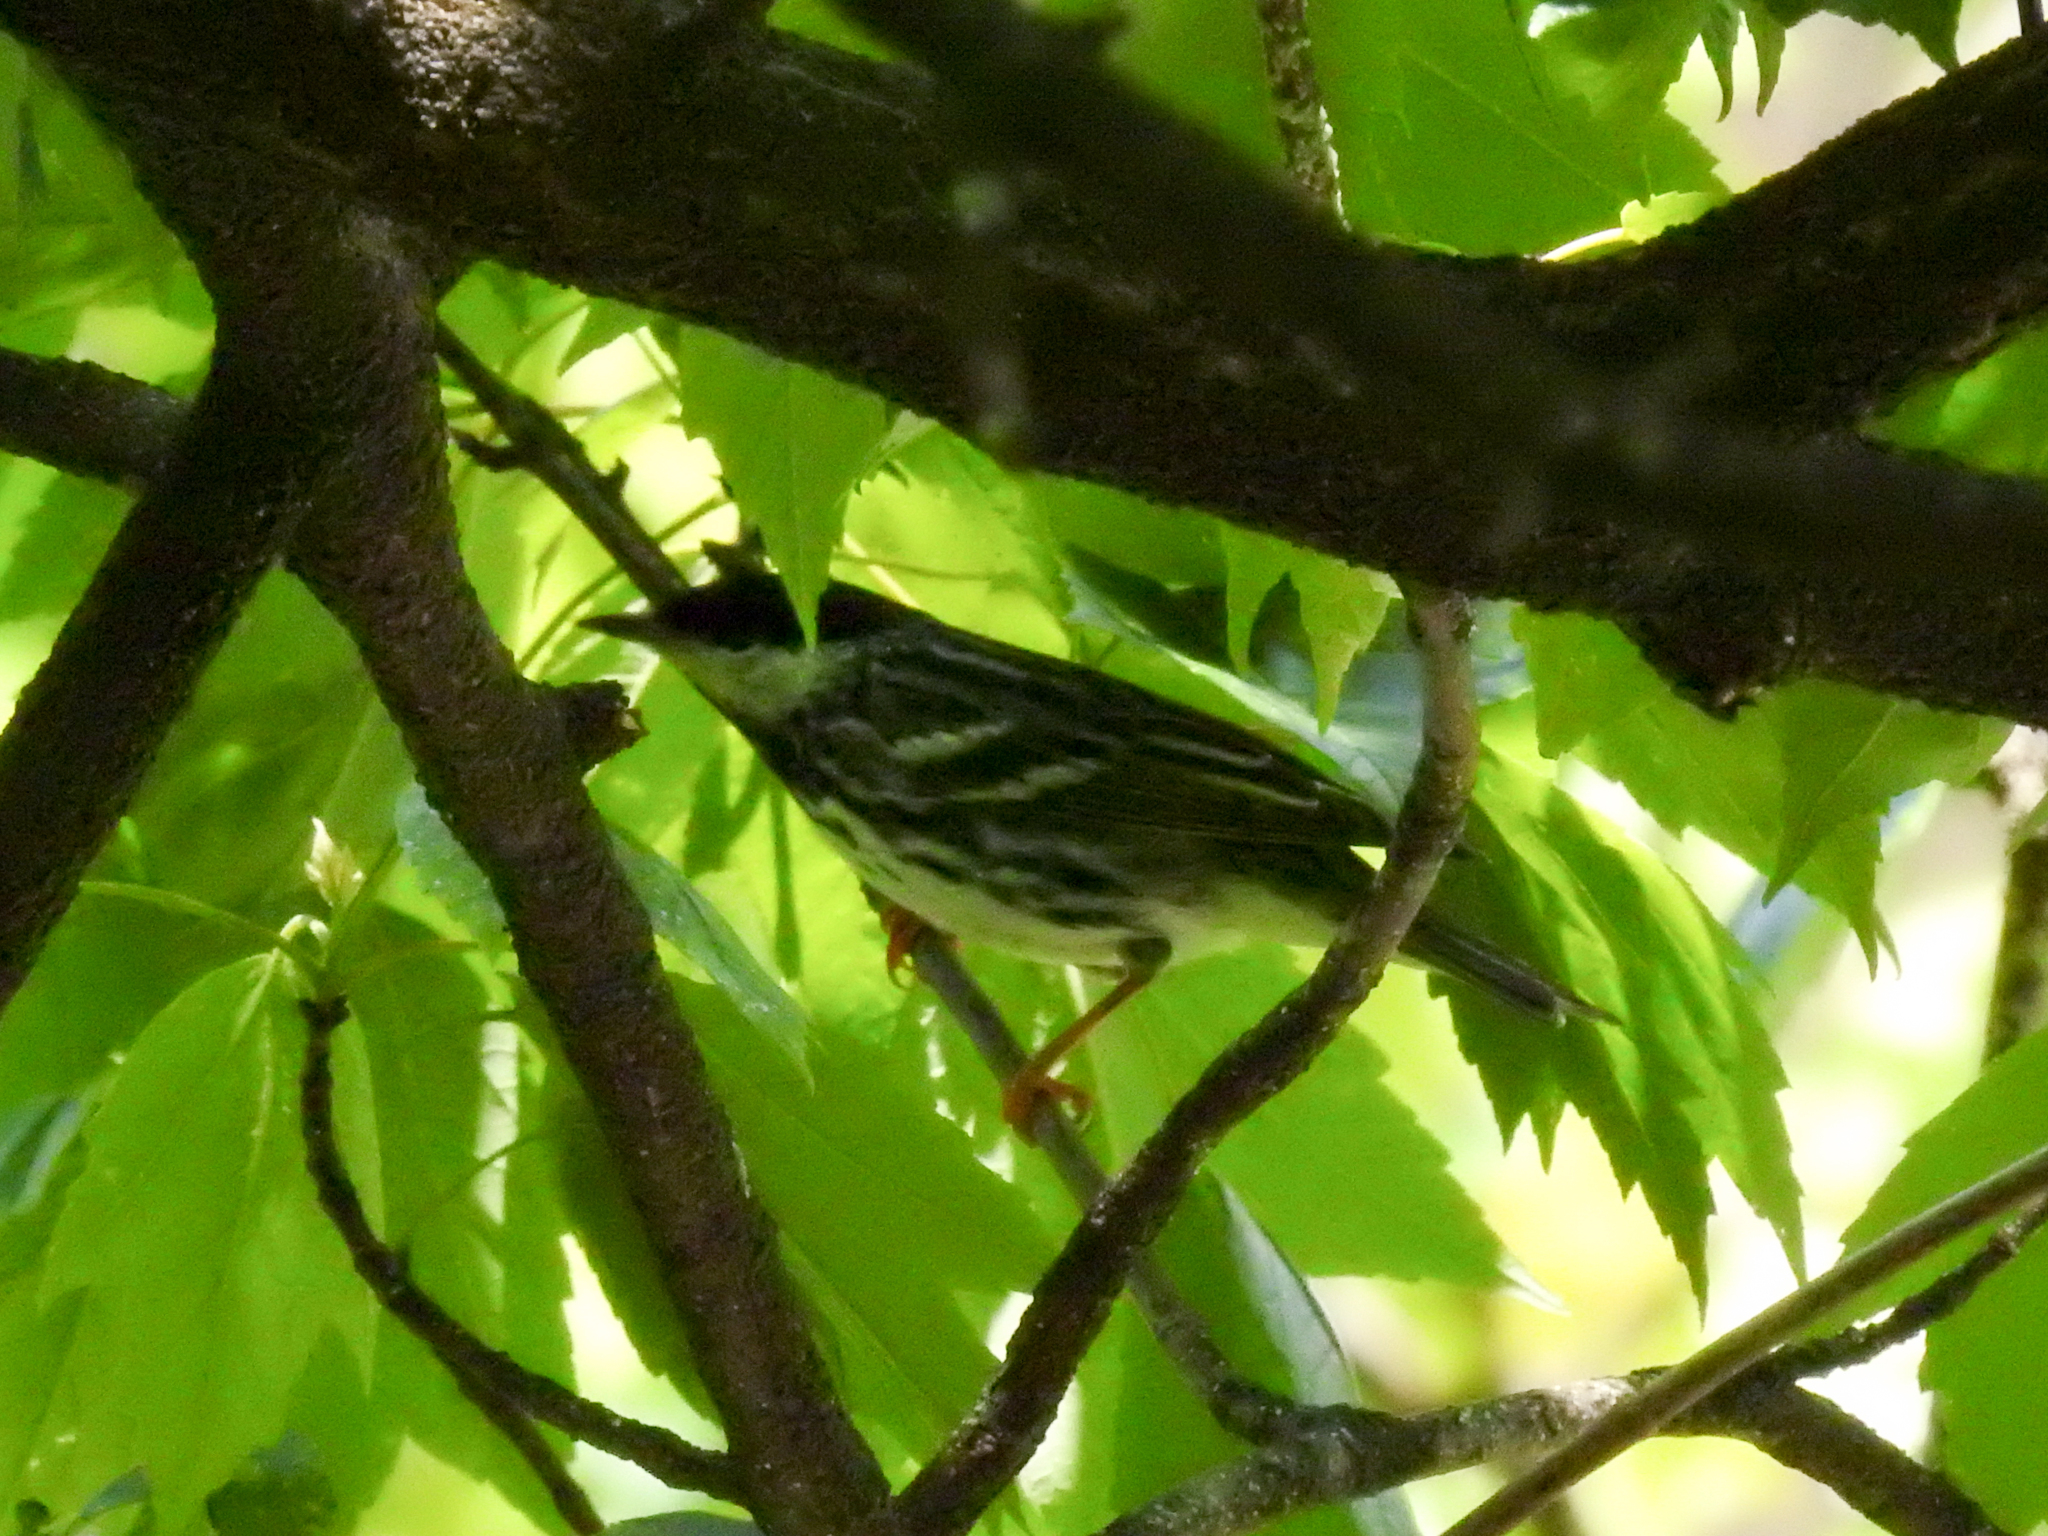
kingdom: Animalia
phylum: Chordata
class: Aves
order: Passeriformes
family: Parulidae
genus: Setophaga
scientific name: Setophaga striata
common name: Blackpoll warbler
